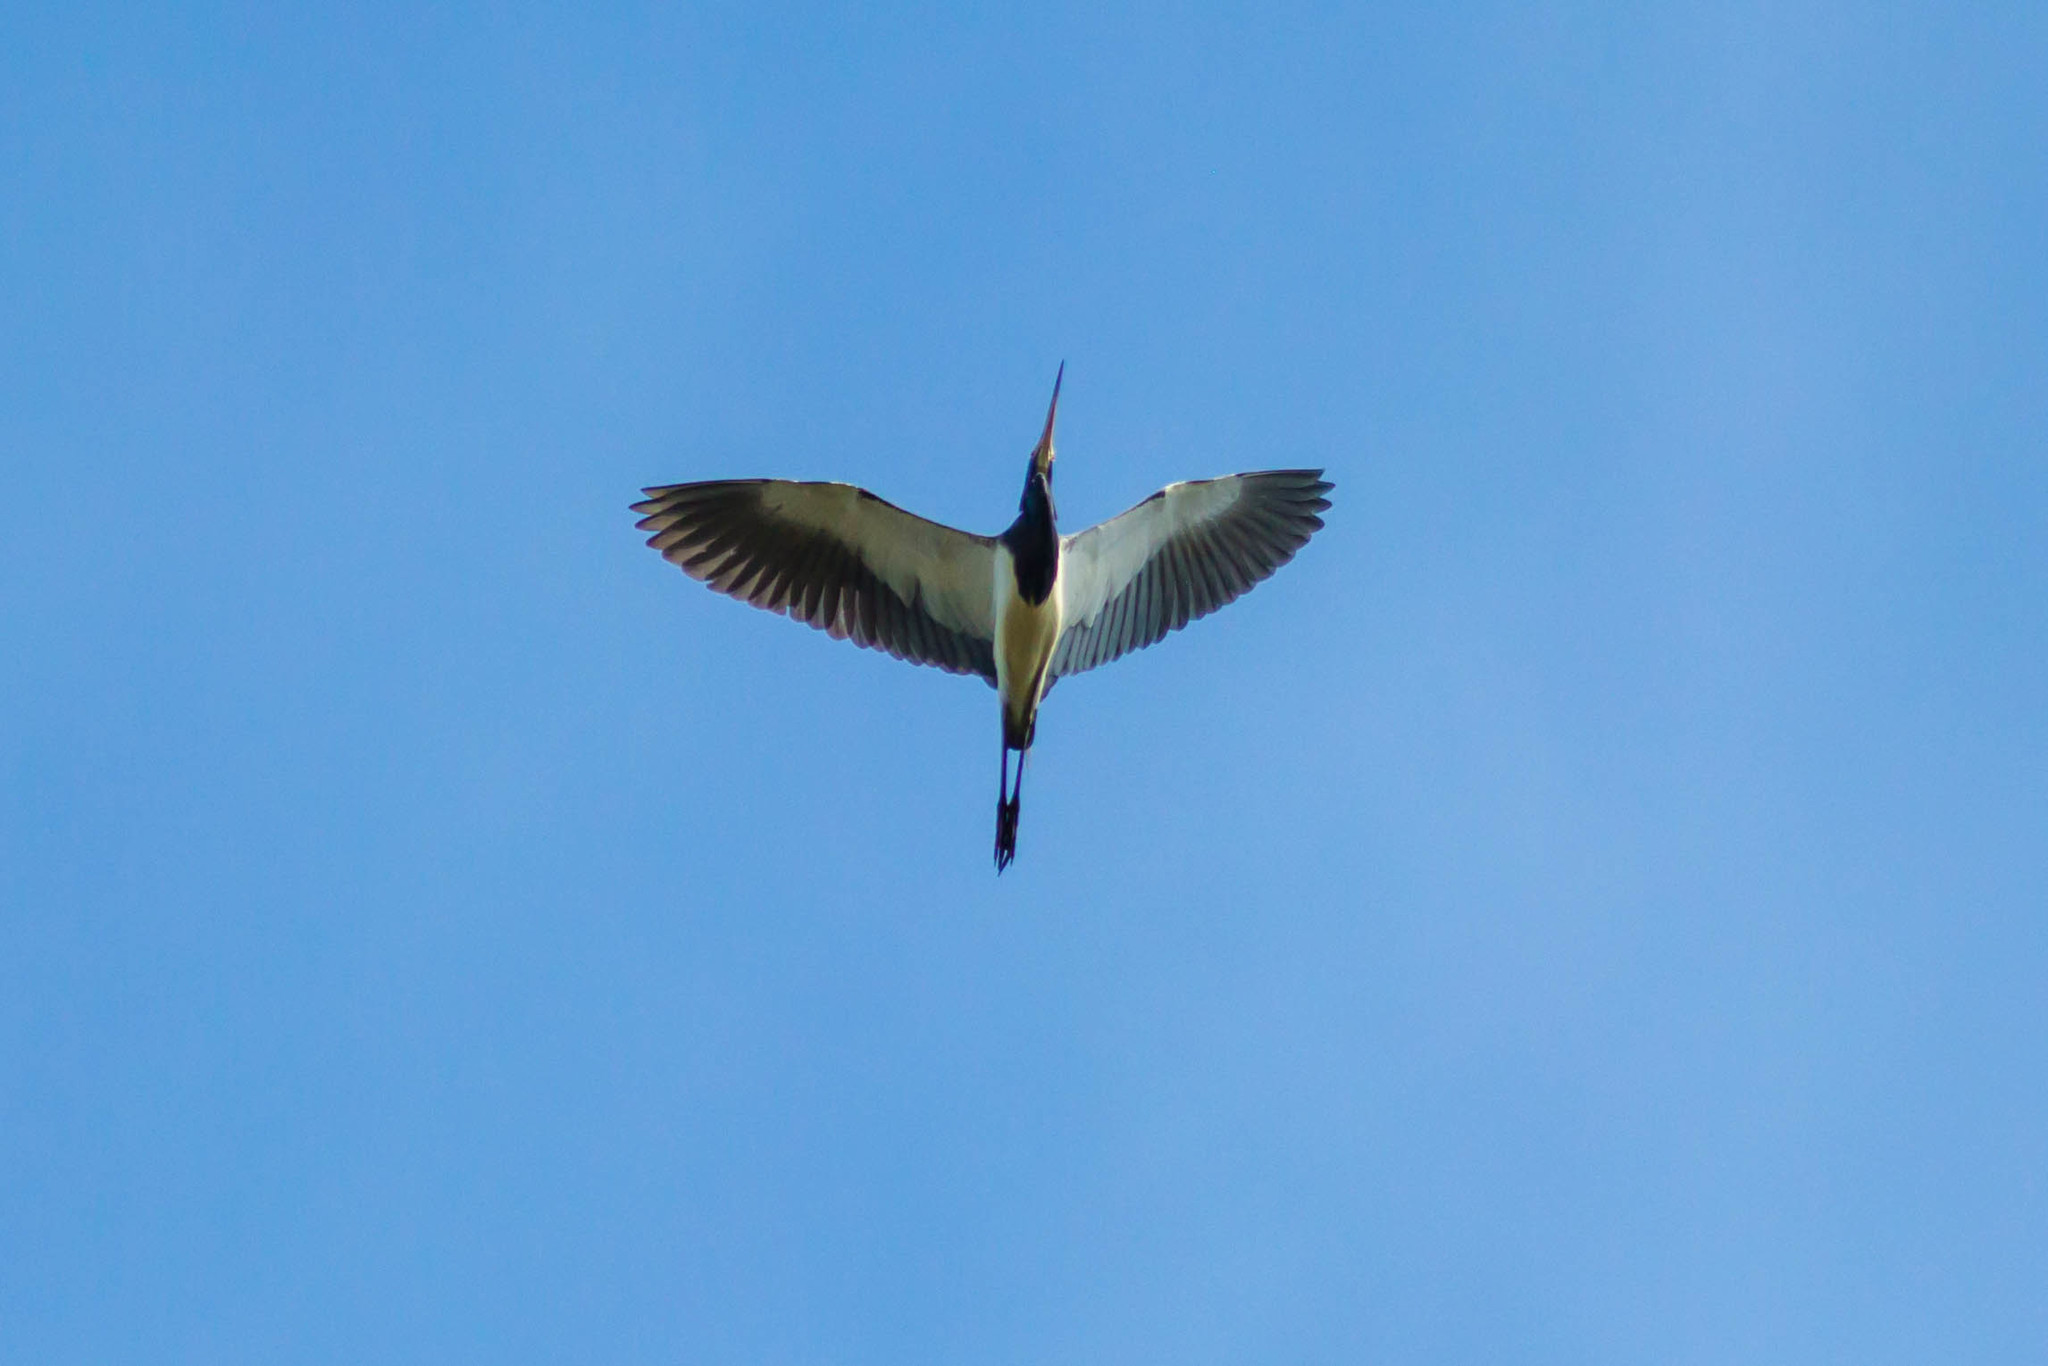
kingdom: Animalia
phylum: Chordata
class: Aves
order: Pelecaniformes
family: Ardeidae
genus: Egretta
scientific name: Egretta tricolor
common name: Tricolored heron
